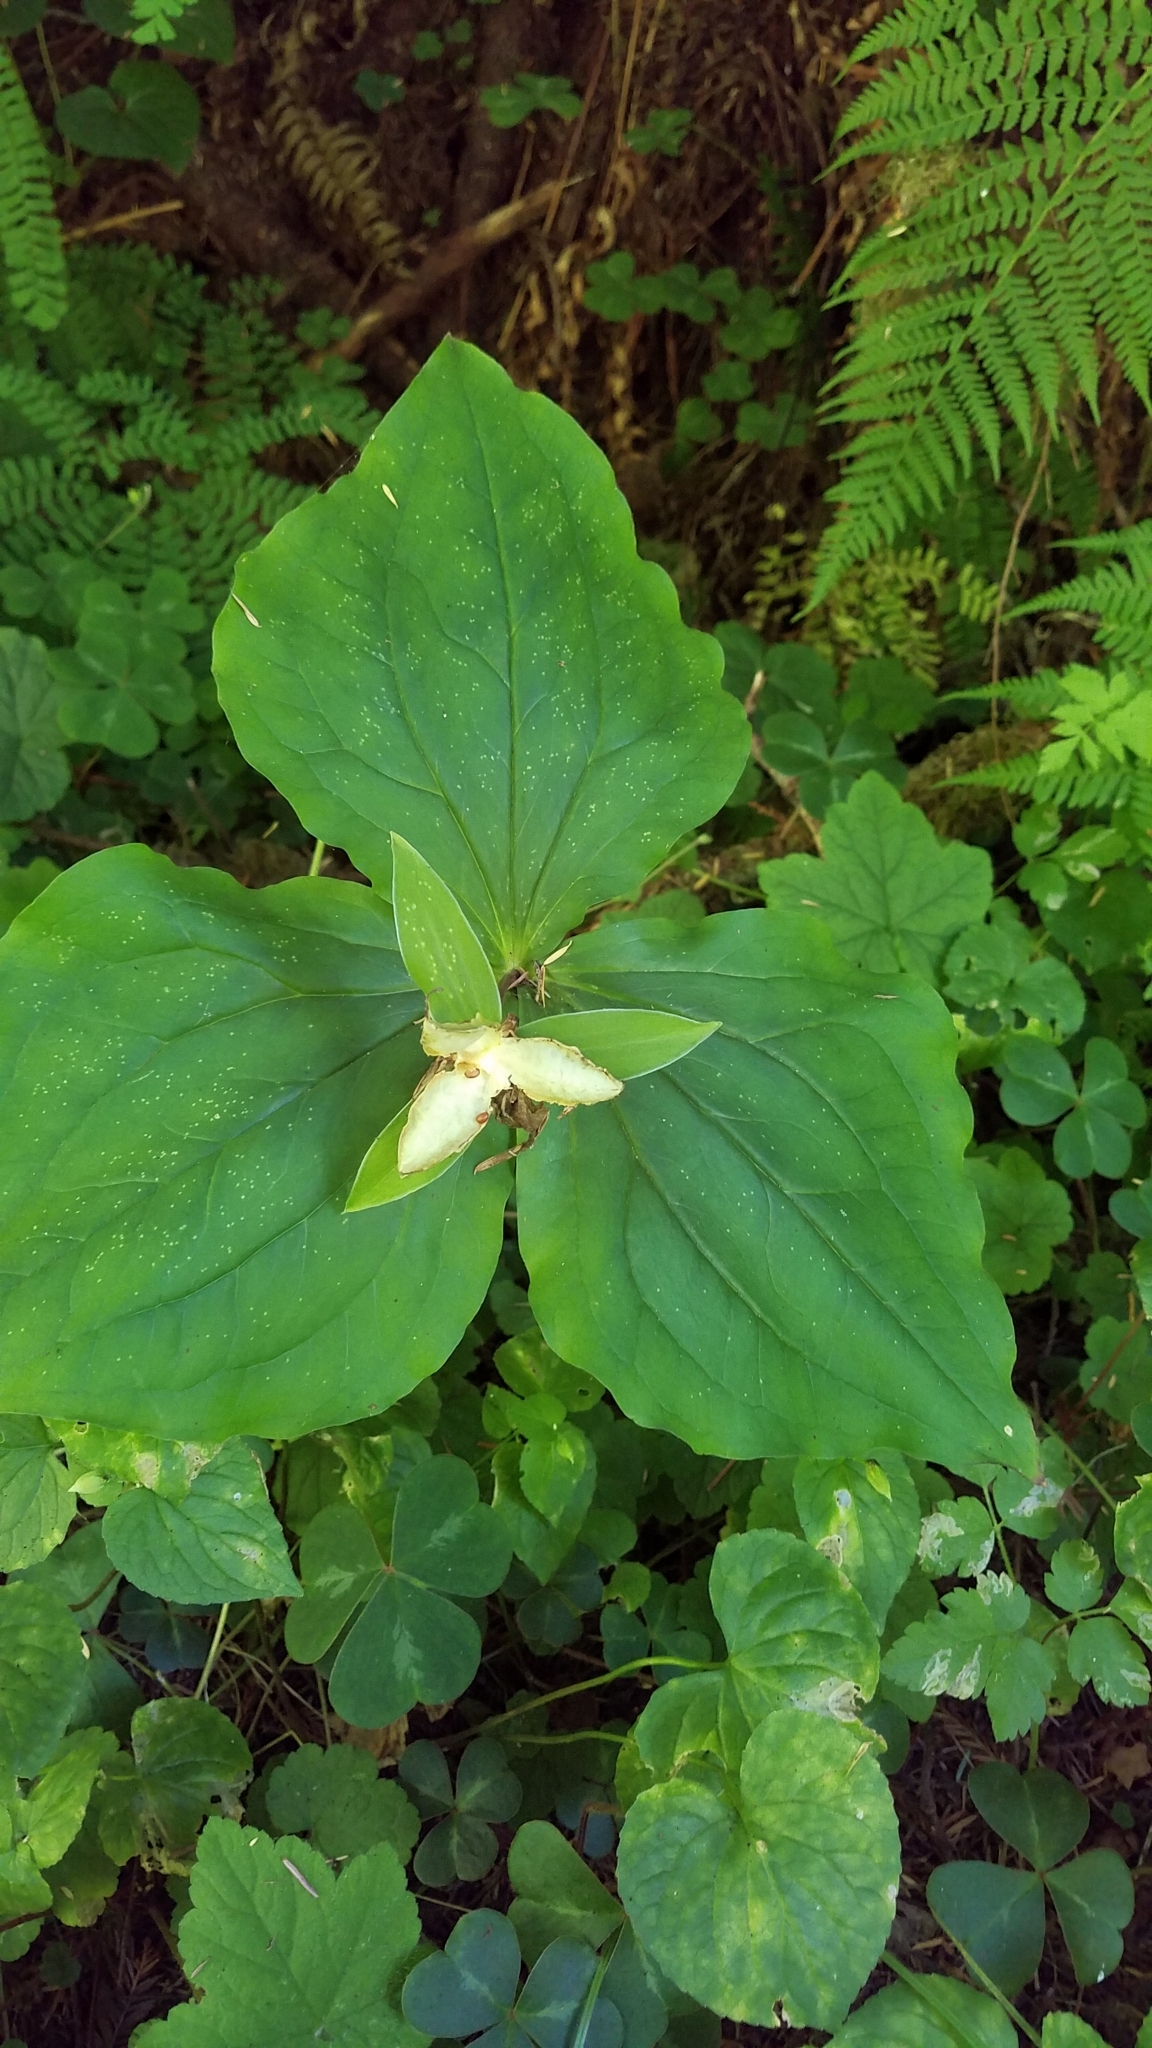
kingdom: Plantae
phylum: Tracheophyta
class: Liliopsida
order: Liliales
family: Melanthiaceae
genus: Trillium
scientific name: Trillium ovatum
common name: Pacific trillium
